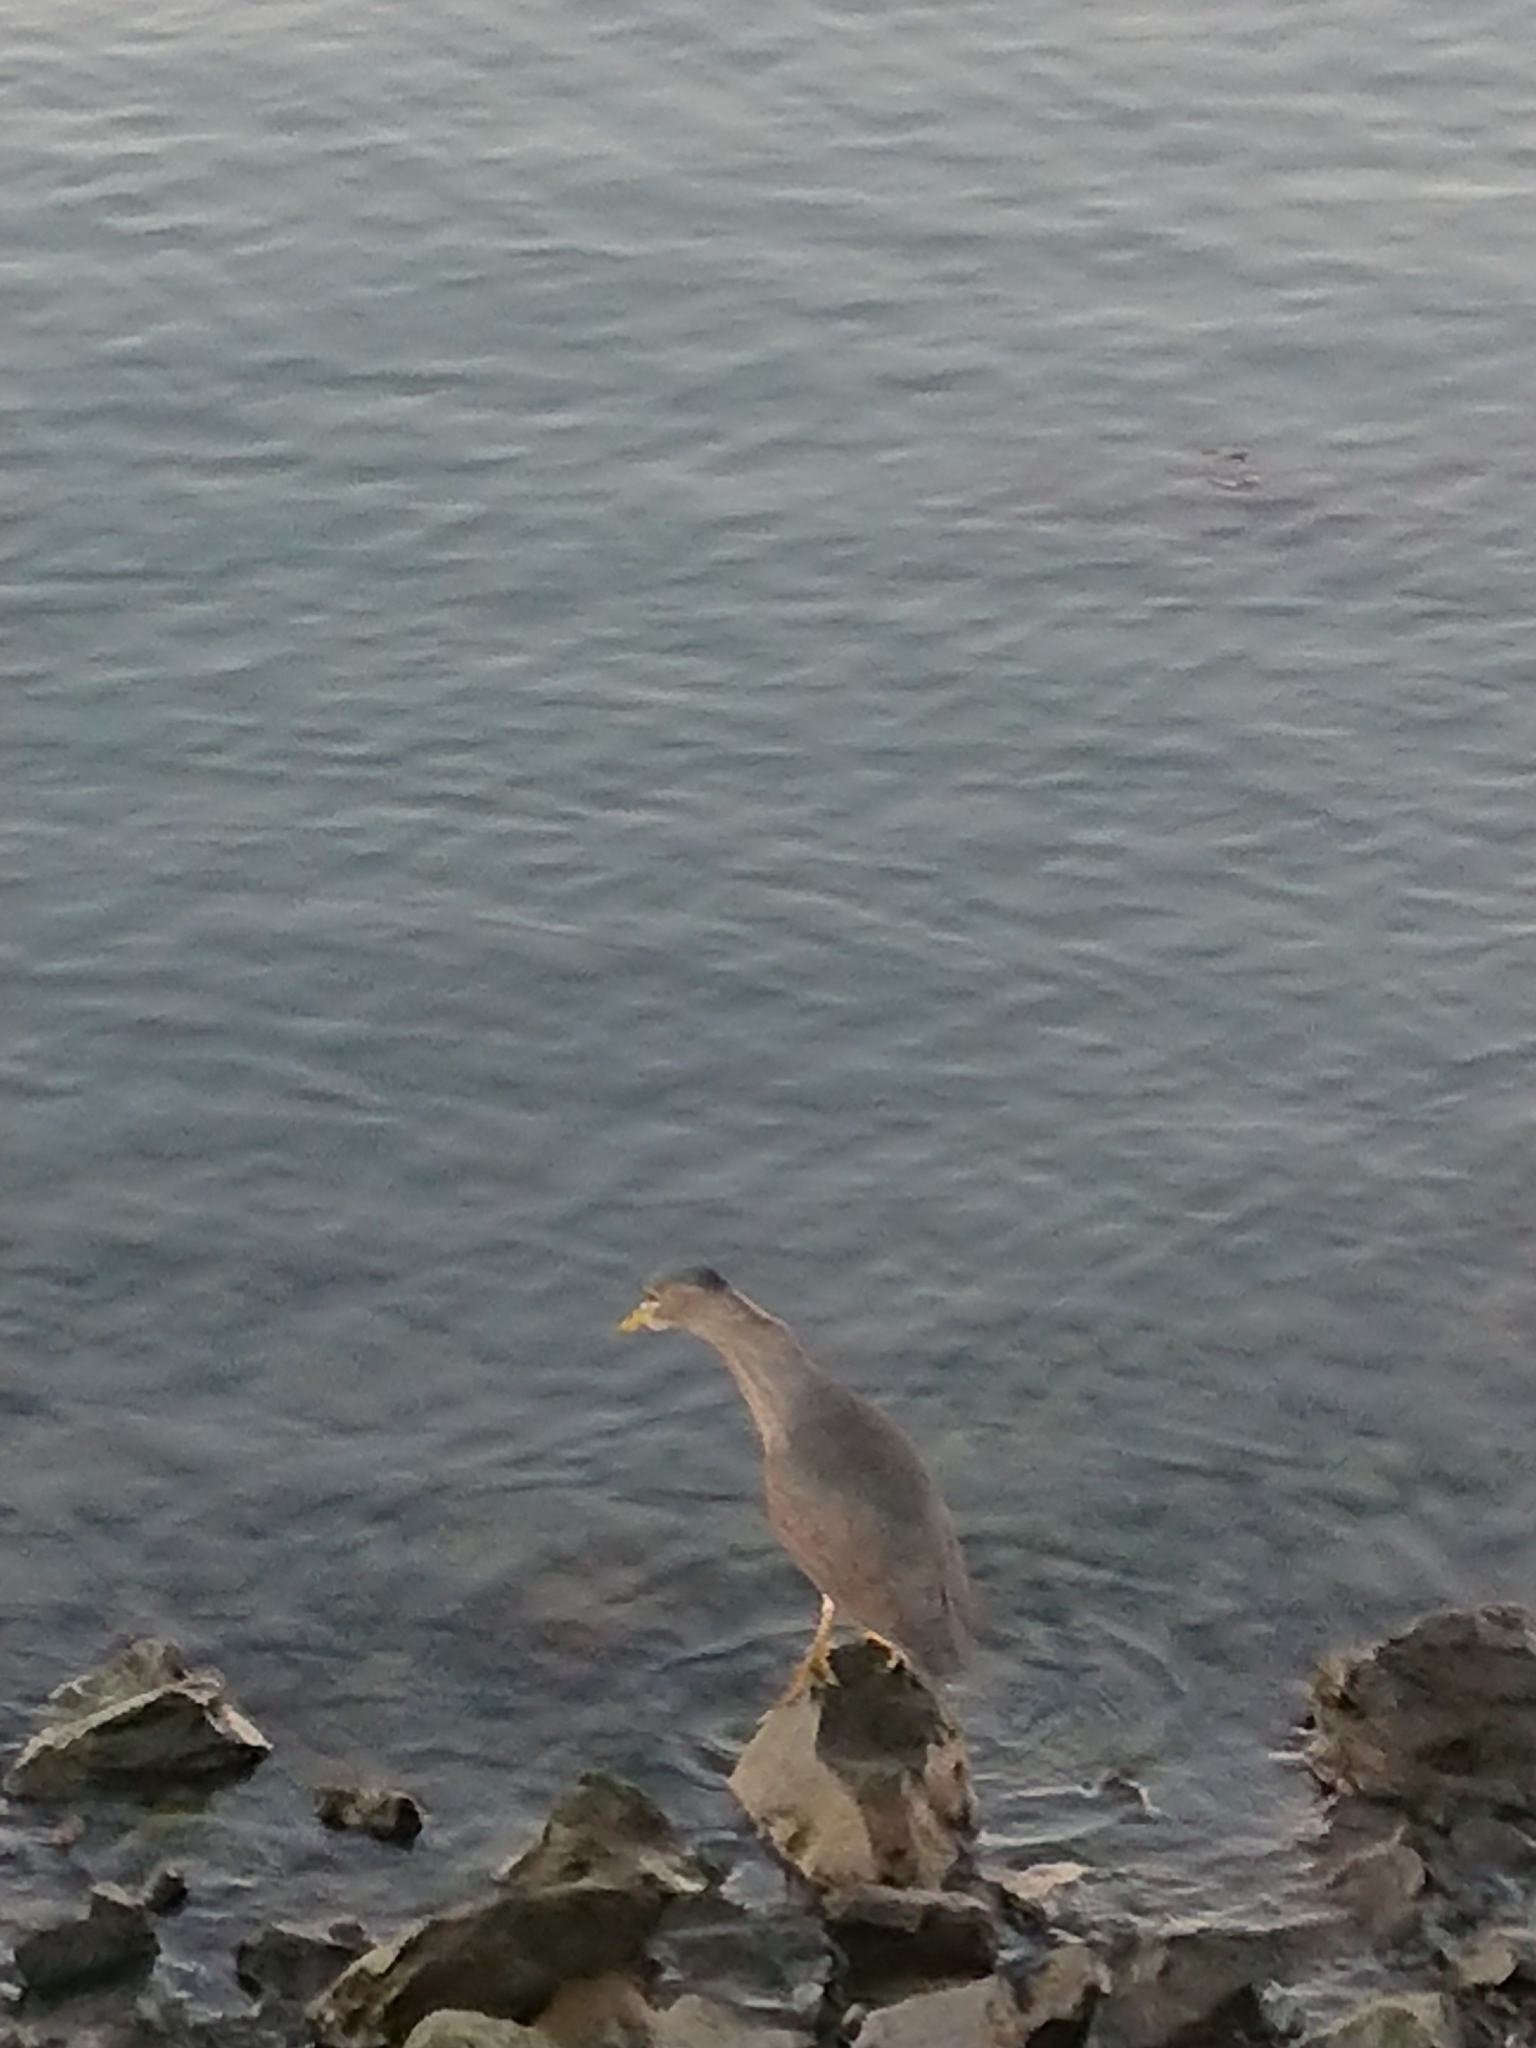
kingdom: Animalia
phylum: Chordata
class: Aves
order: Pelecaniformes
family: Ardeidae
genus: Nycticorax
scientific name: Nycticorax nycticorax
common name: Black-crowned night heron
